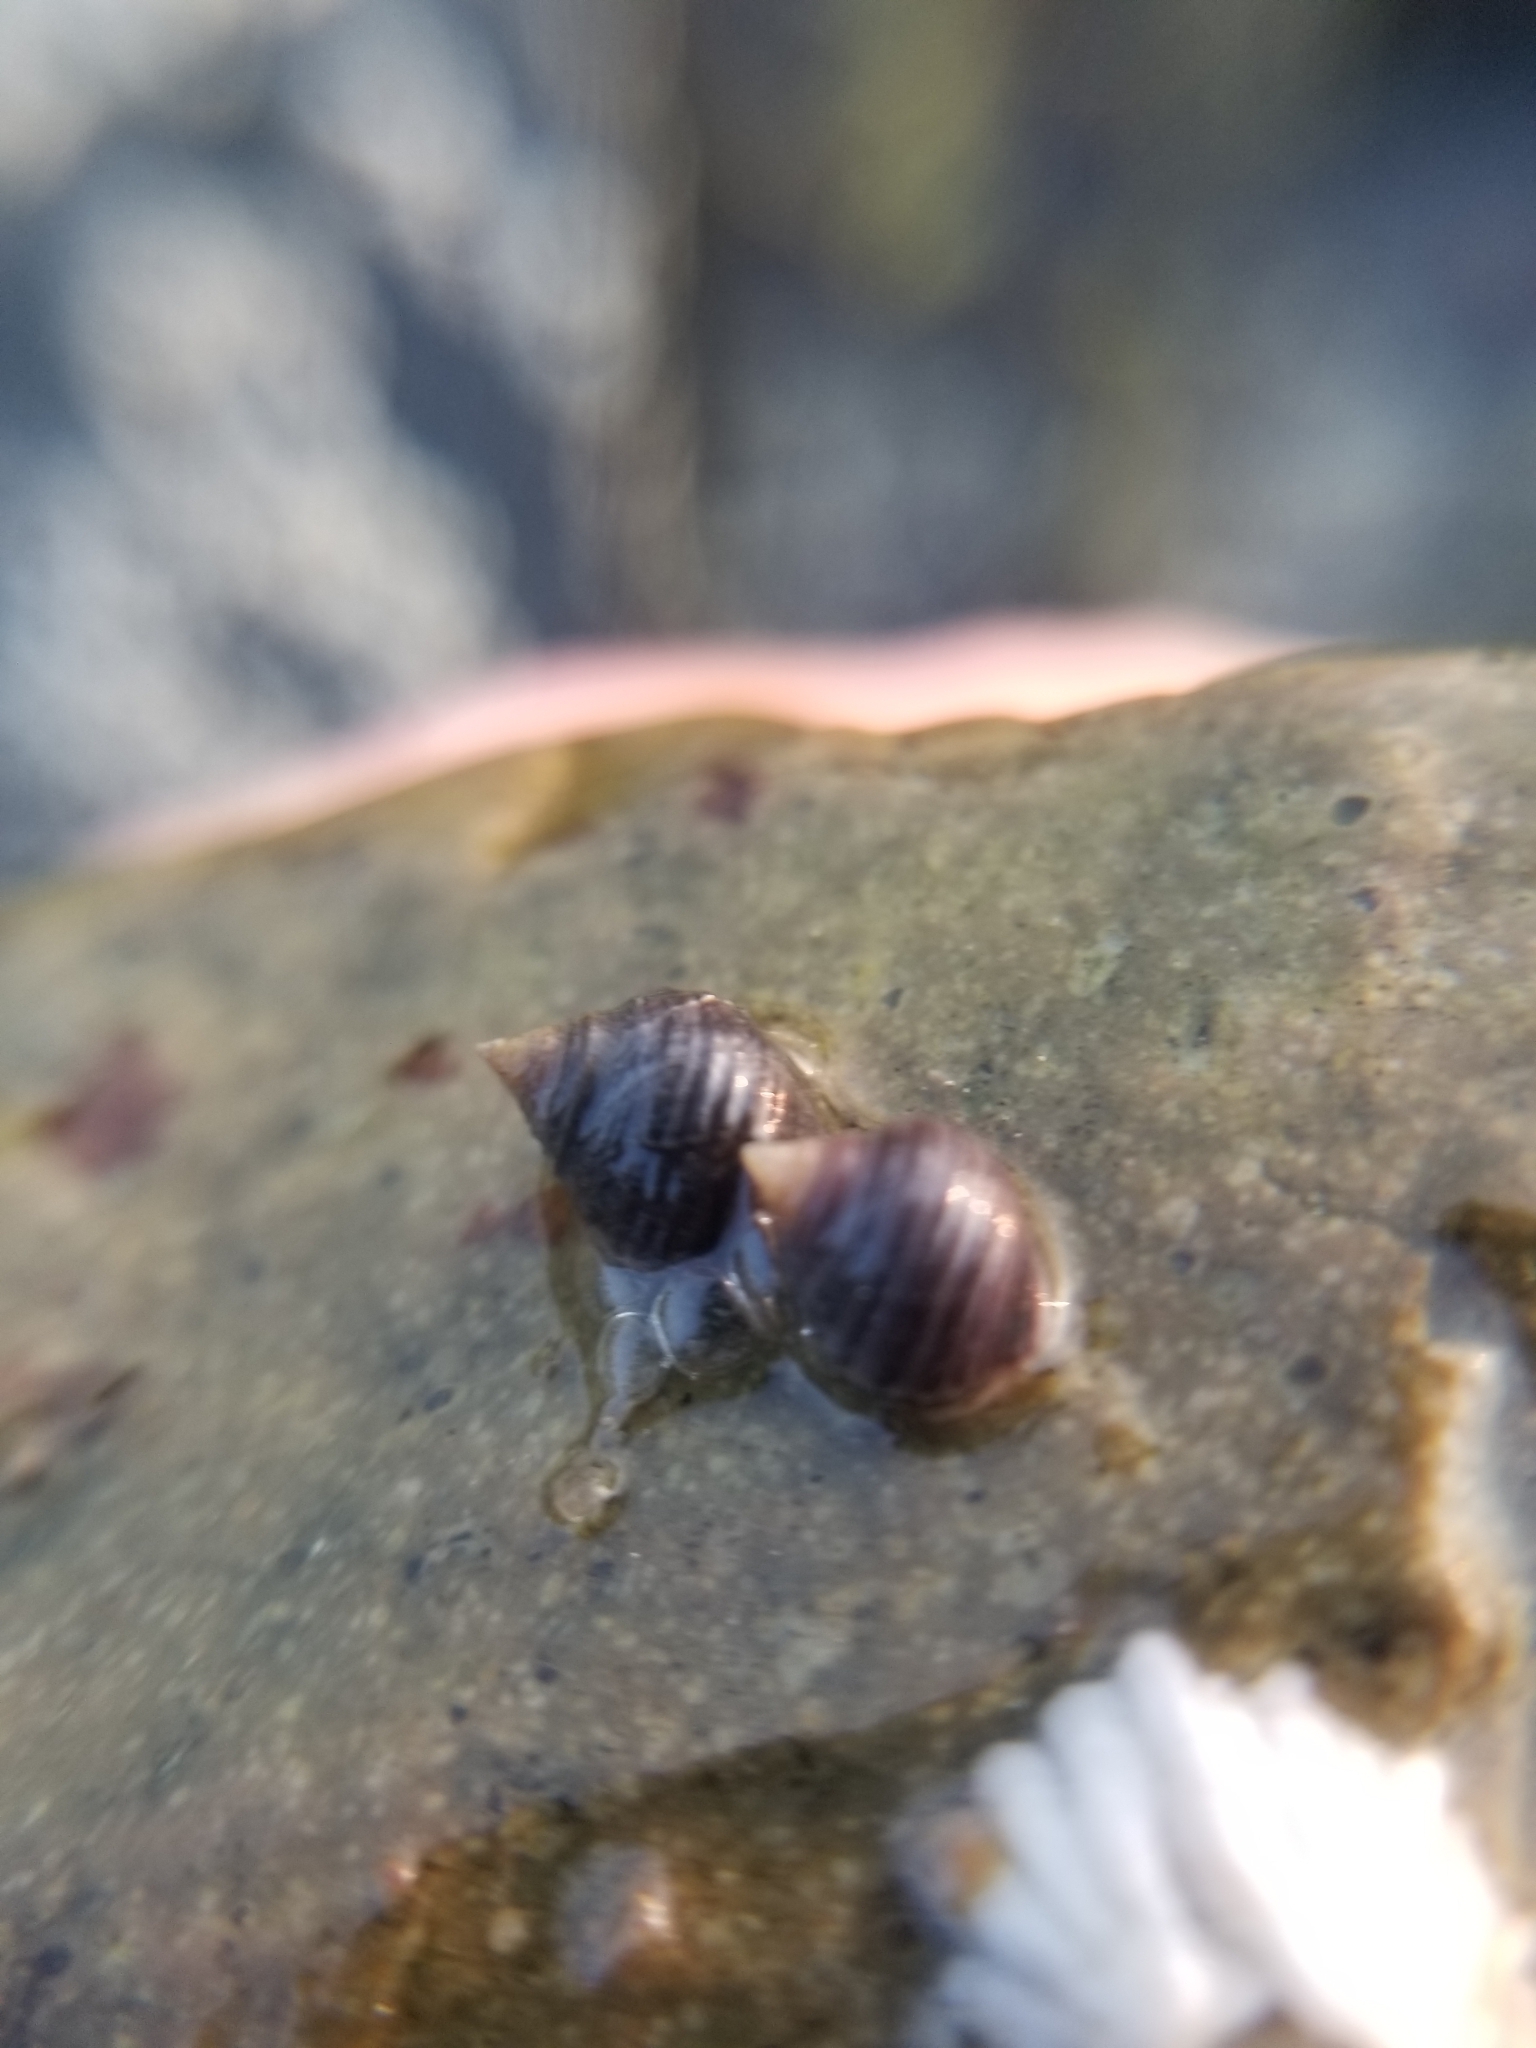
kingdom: Animalia
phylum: Mollusca
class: Gastropoda
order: Littorinimorpha
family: Littorinidae
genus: Littorina
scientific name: Littorina littorea
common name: Common periwinkle
